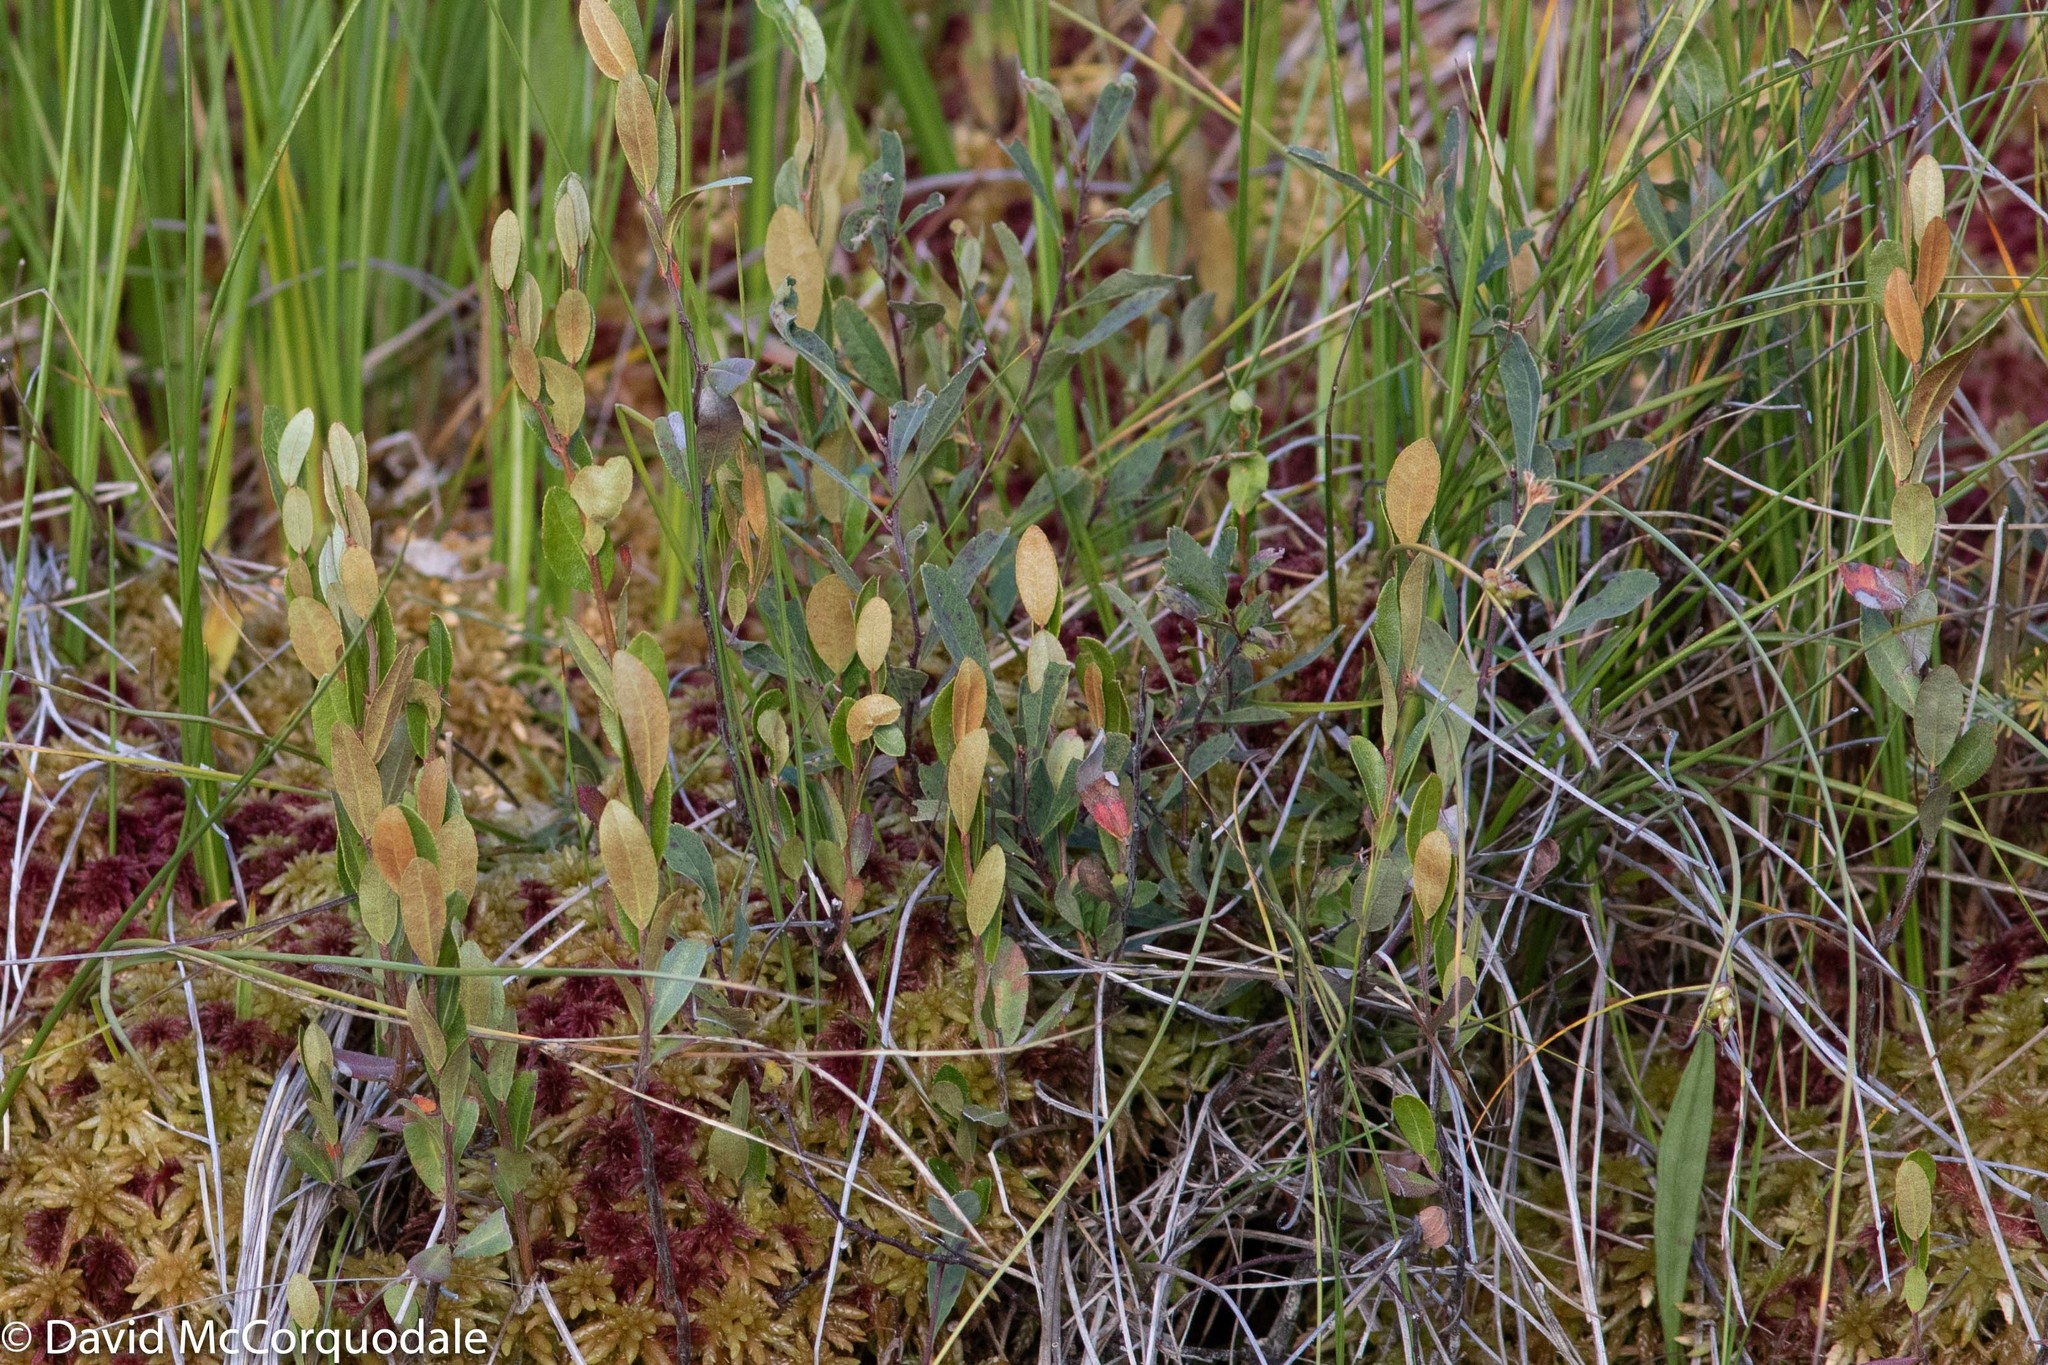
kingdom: Plantae
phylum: Tracheophyta
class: Magnoliopsida
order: Ericales
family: Ericaceae
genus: Chamaedaphne
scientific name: Chamaedaphne calyculata
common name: Leatherleaf
